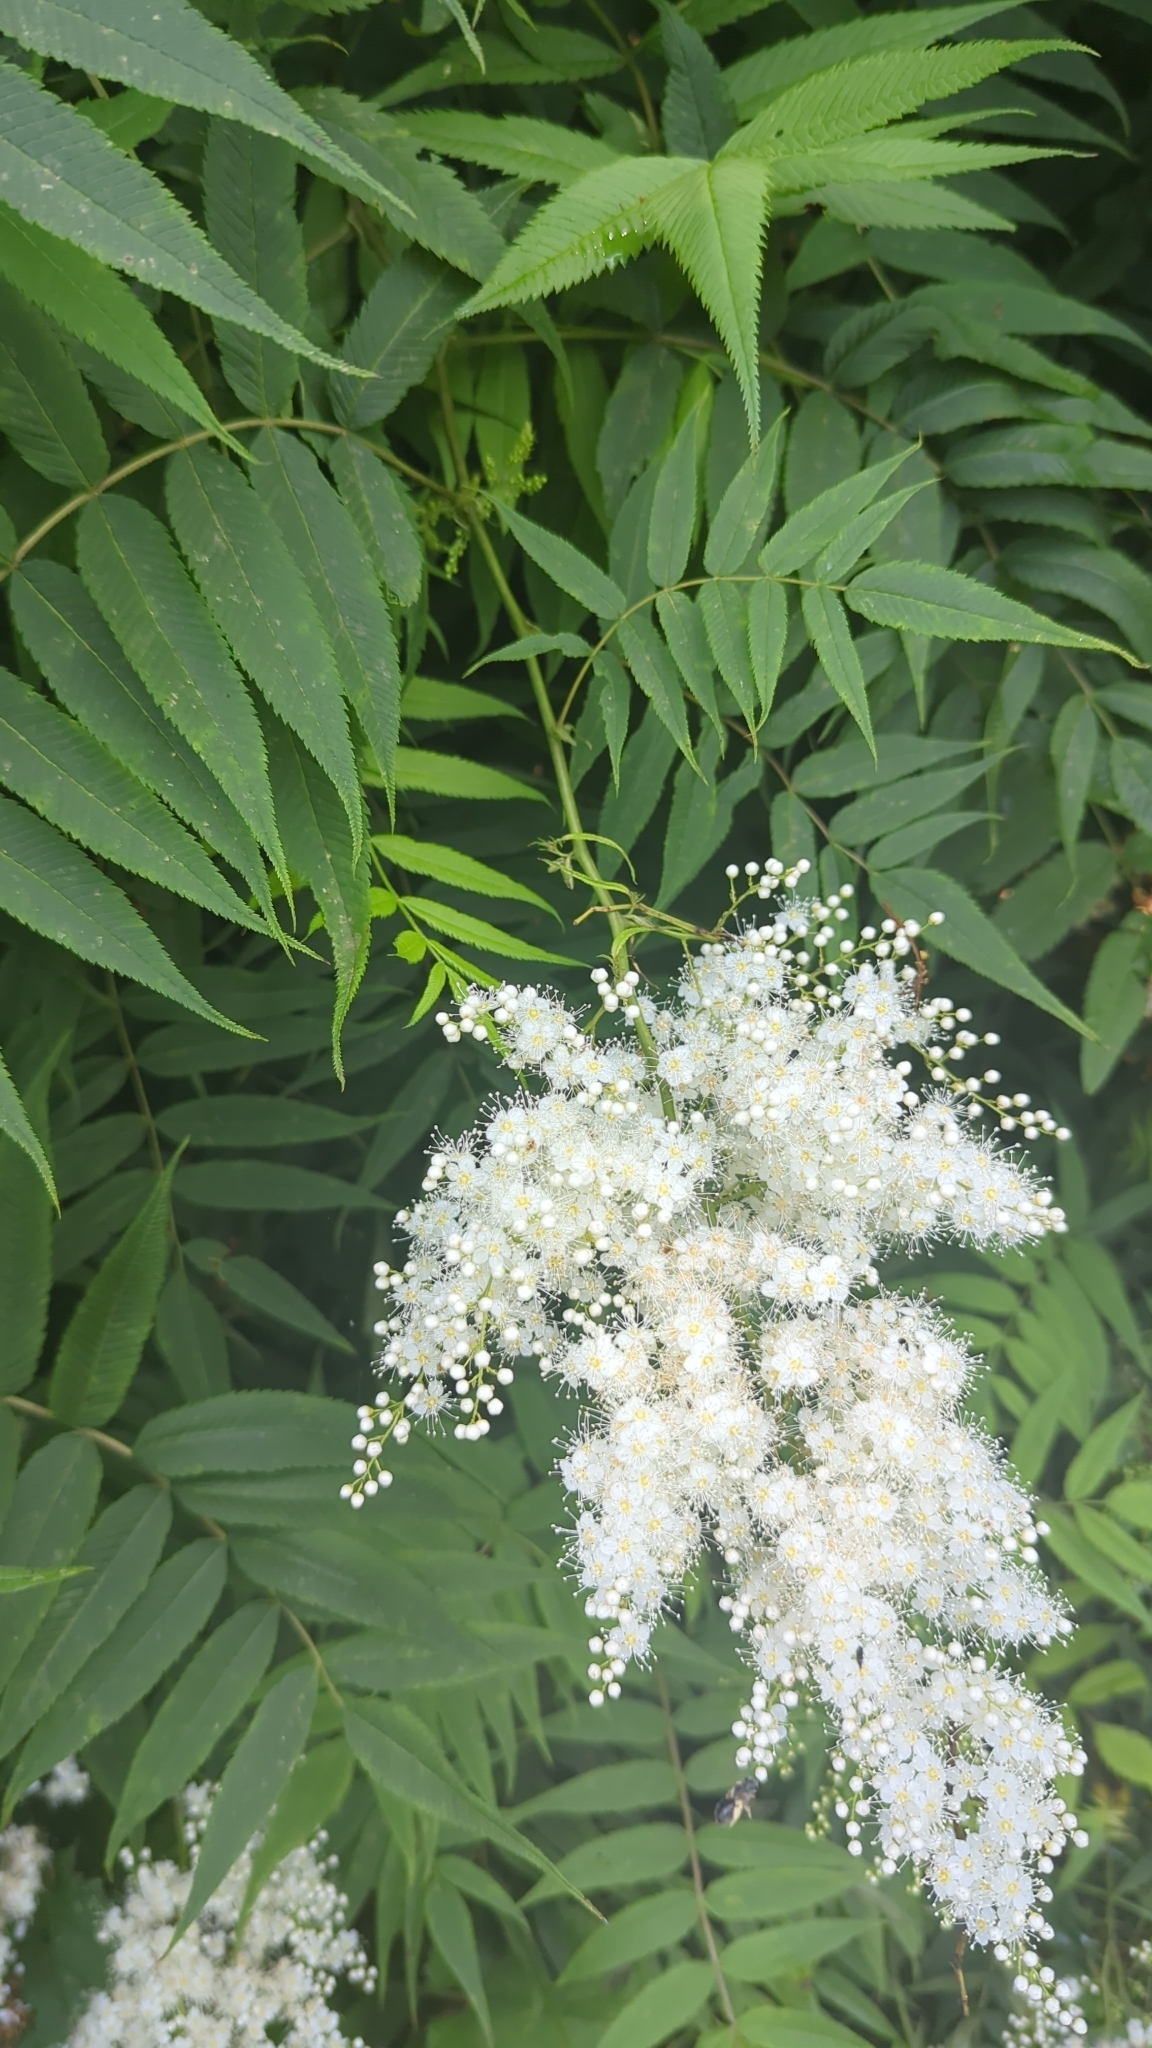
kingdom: Plantae
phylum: Tracheophyta
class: Magnoliopsida
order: Rosales
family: Rosaceae
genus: Sorbaria
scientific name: Sorbaria sorbifolia
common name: False spiraea
